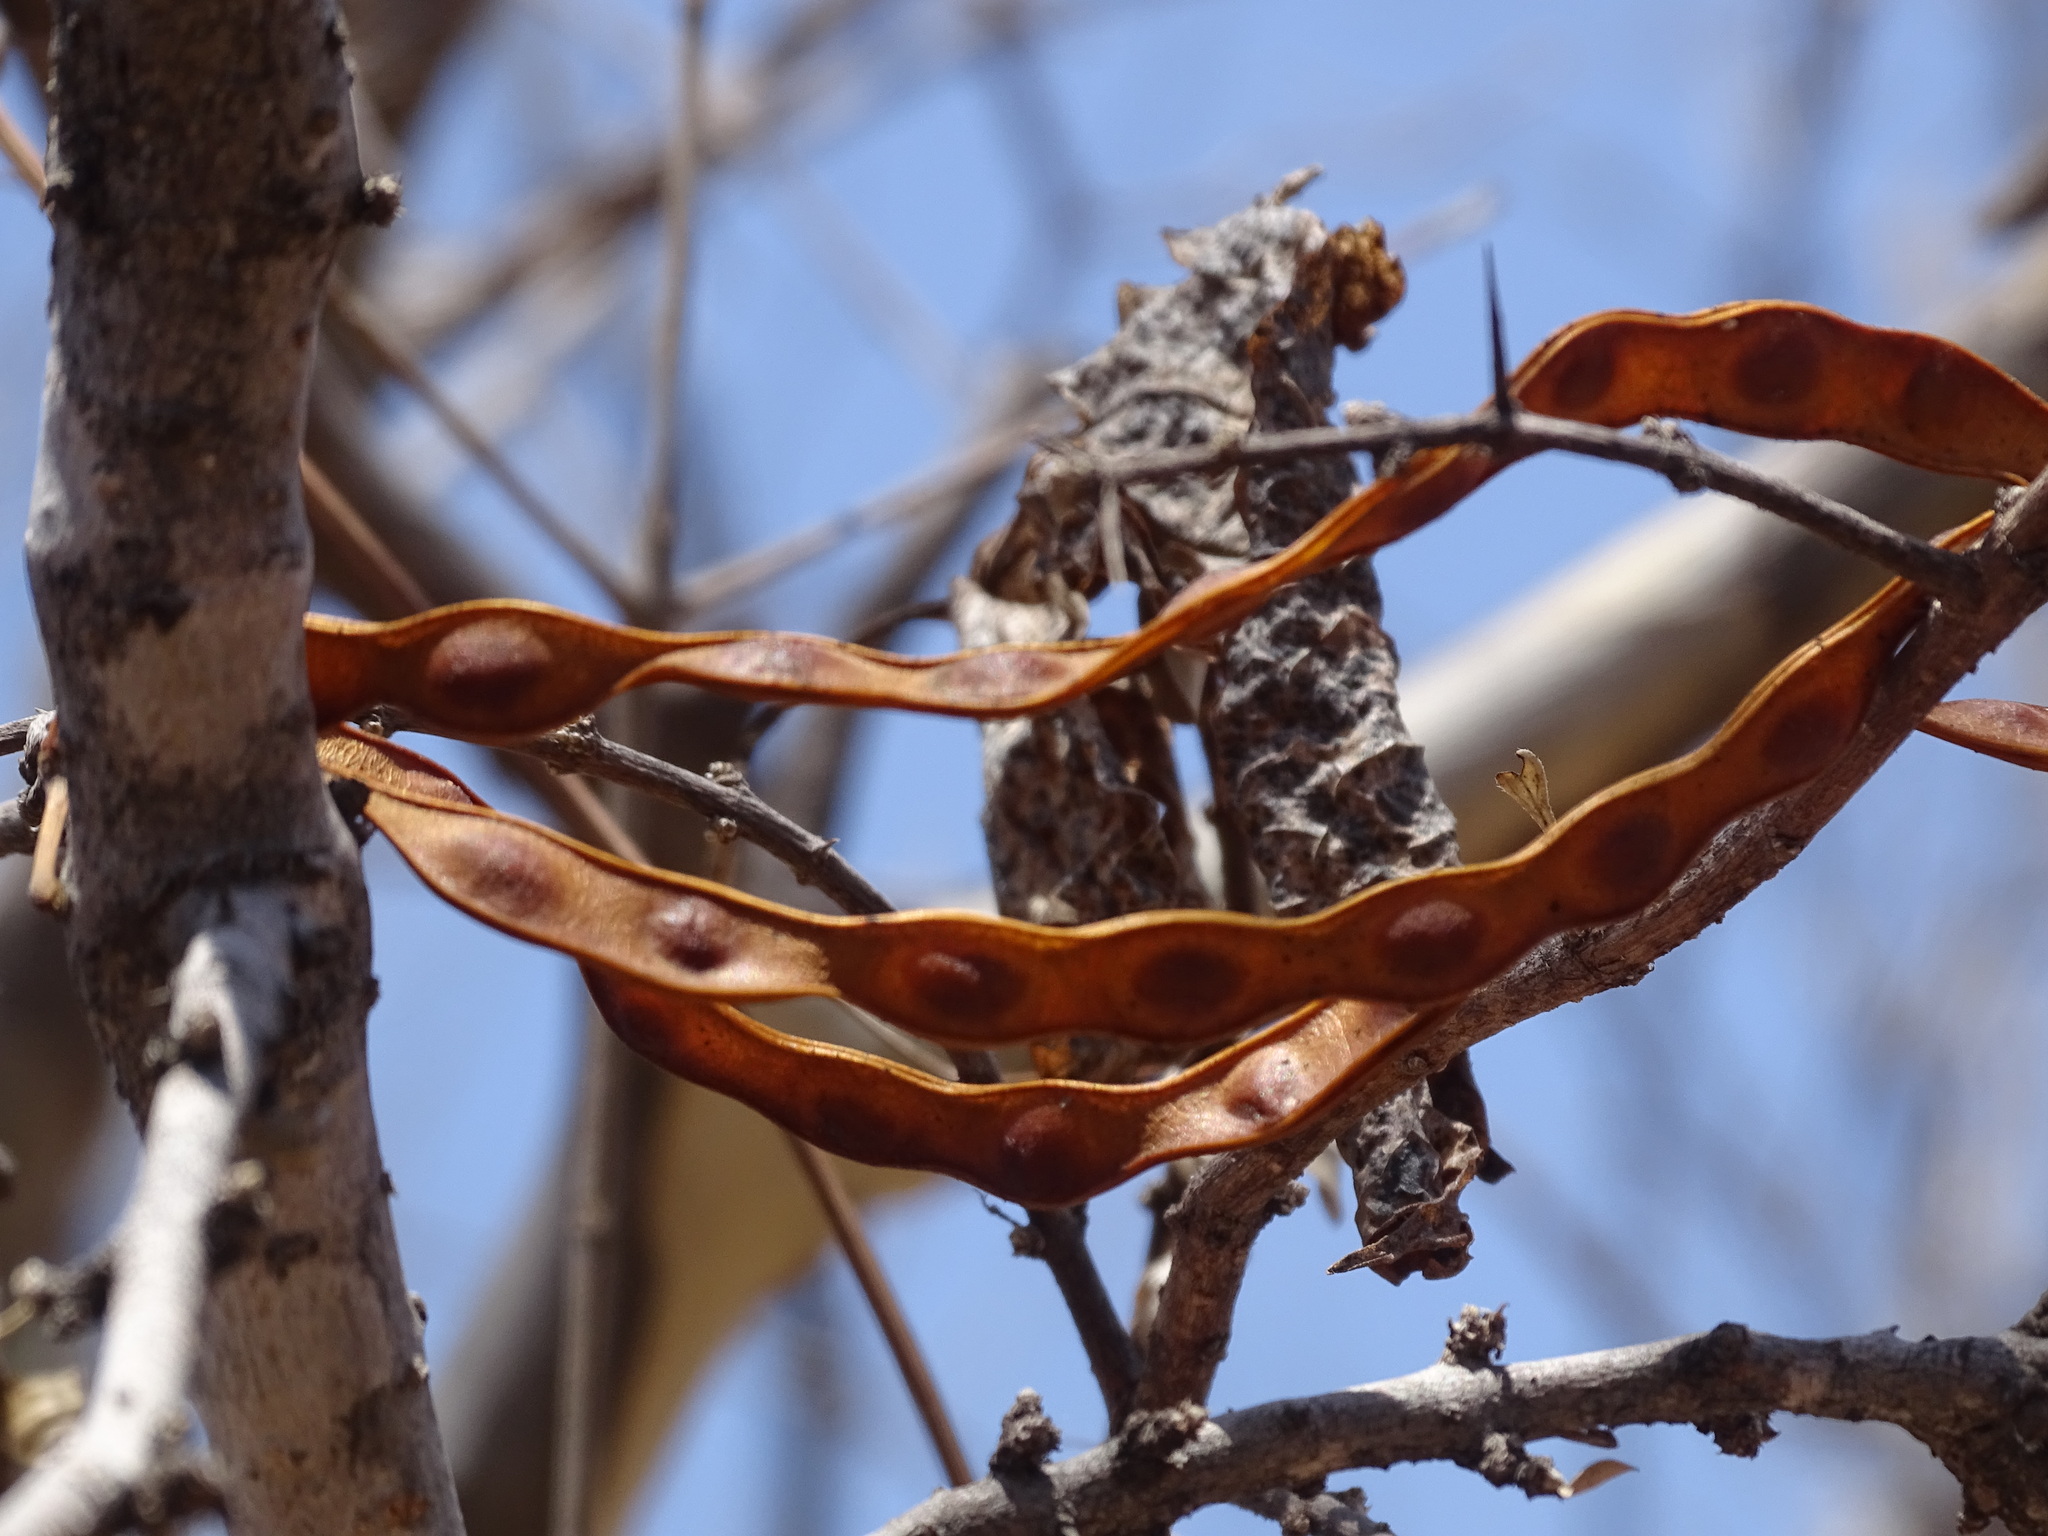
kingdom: Plantae
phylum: Tracheophyta
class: Magnoliopsida
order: Fabales
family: Fabaceae
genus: Chloroleucon
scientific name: Chloroleucon mangense
